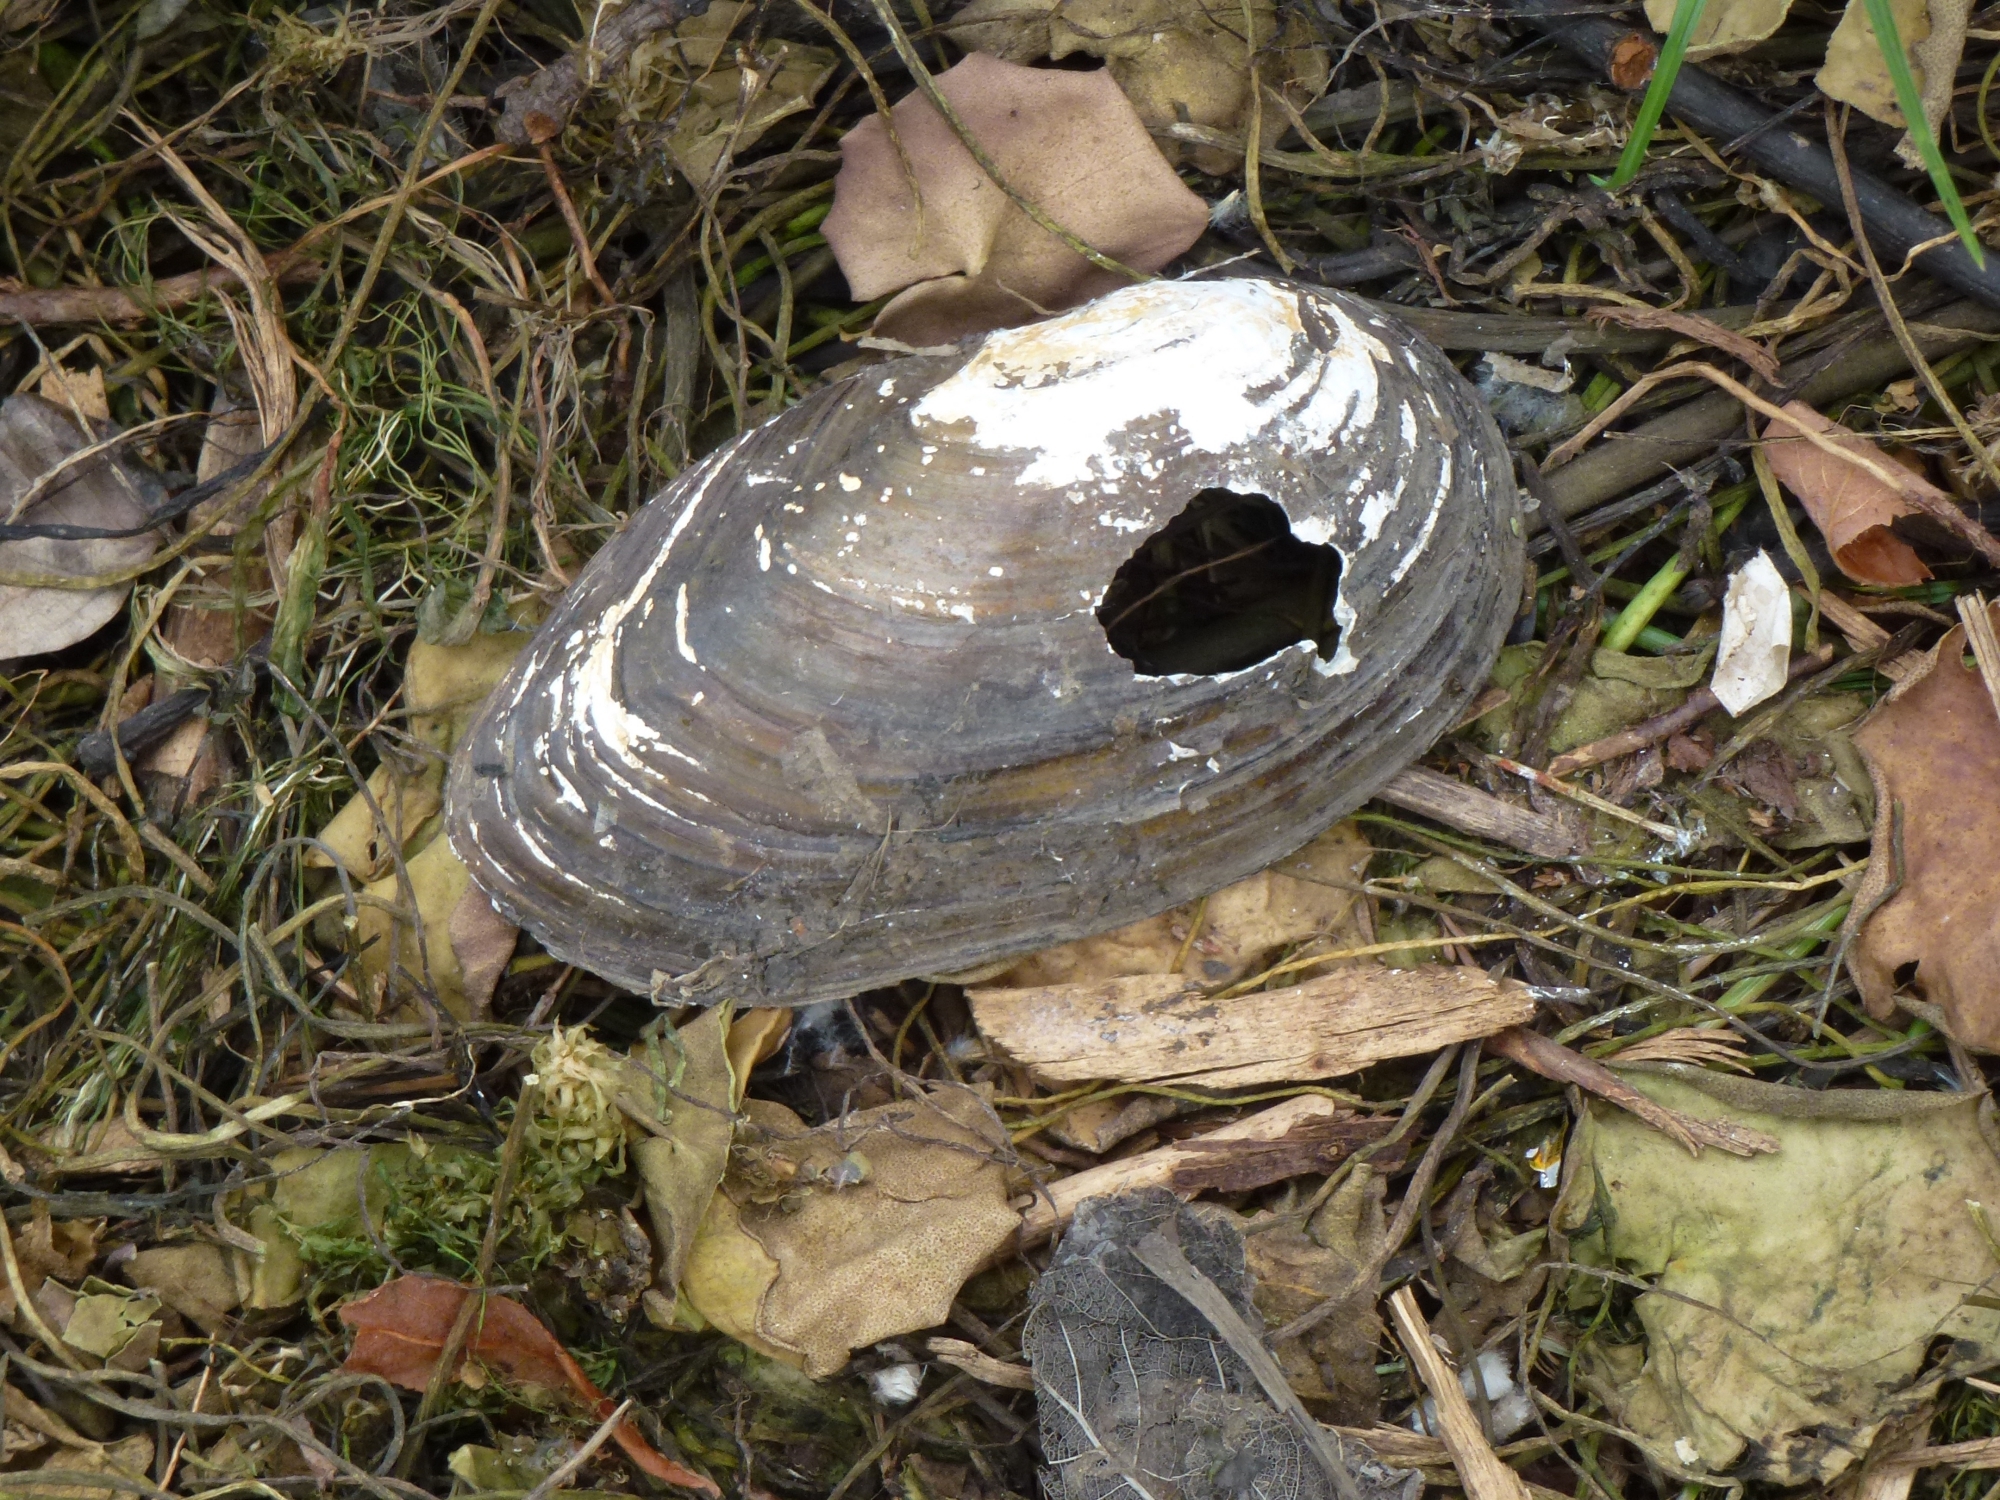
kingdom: Animalia
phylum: Mollusca
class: Bivalvia
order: Unionida
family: Unionidae
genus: Anodonta
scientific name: Anodonta cygnea
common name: Swan mussel
